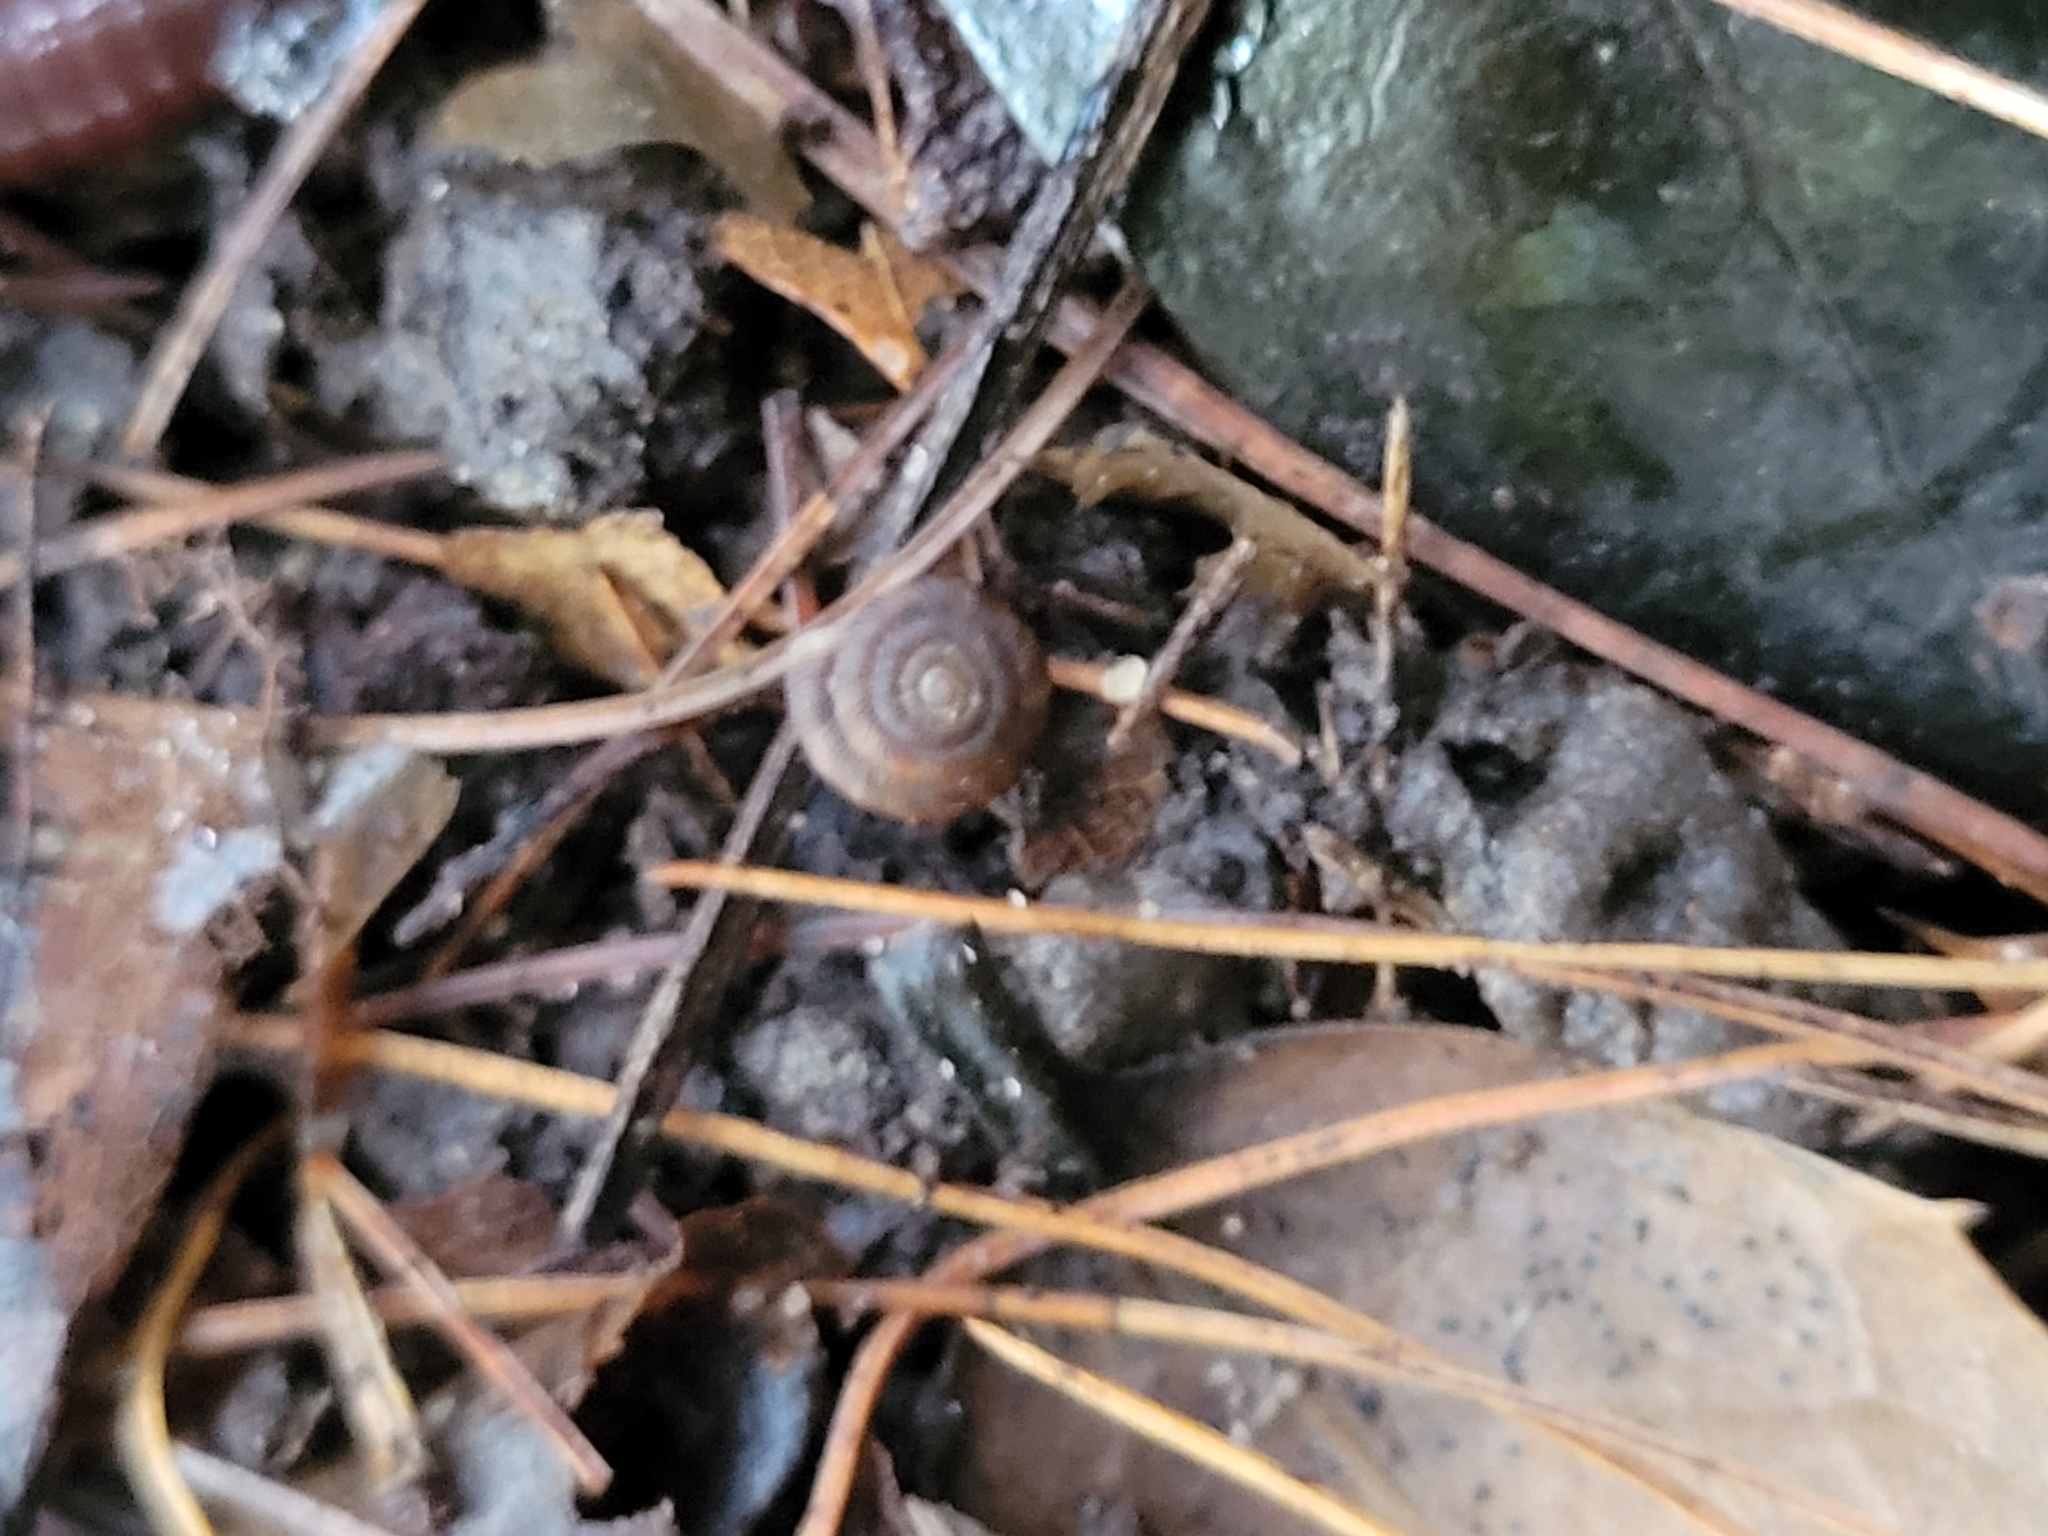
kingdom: Animalia
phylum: Mollusca
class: Gastropoda
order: Stylommatophora
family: Discidae
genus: Discus
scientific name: Discus rotundatus
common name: Rounded snail
